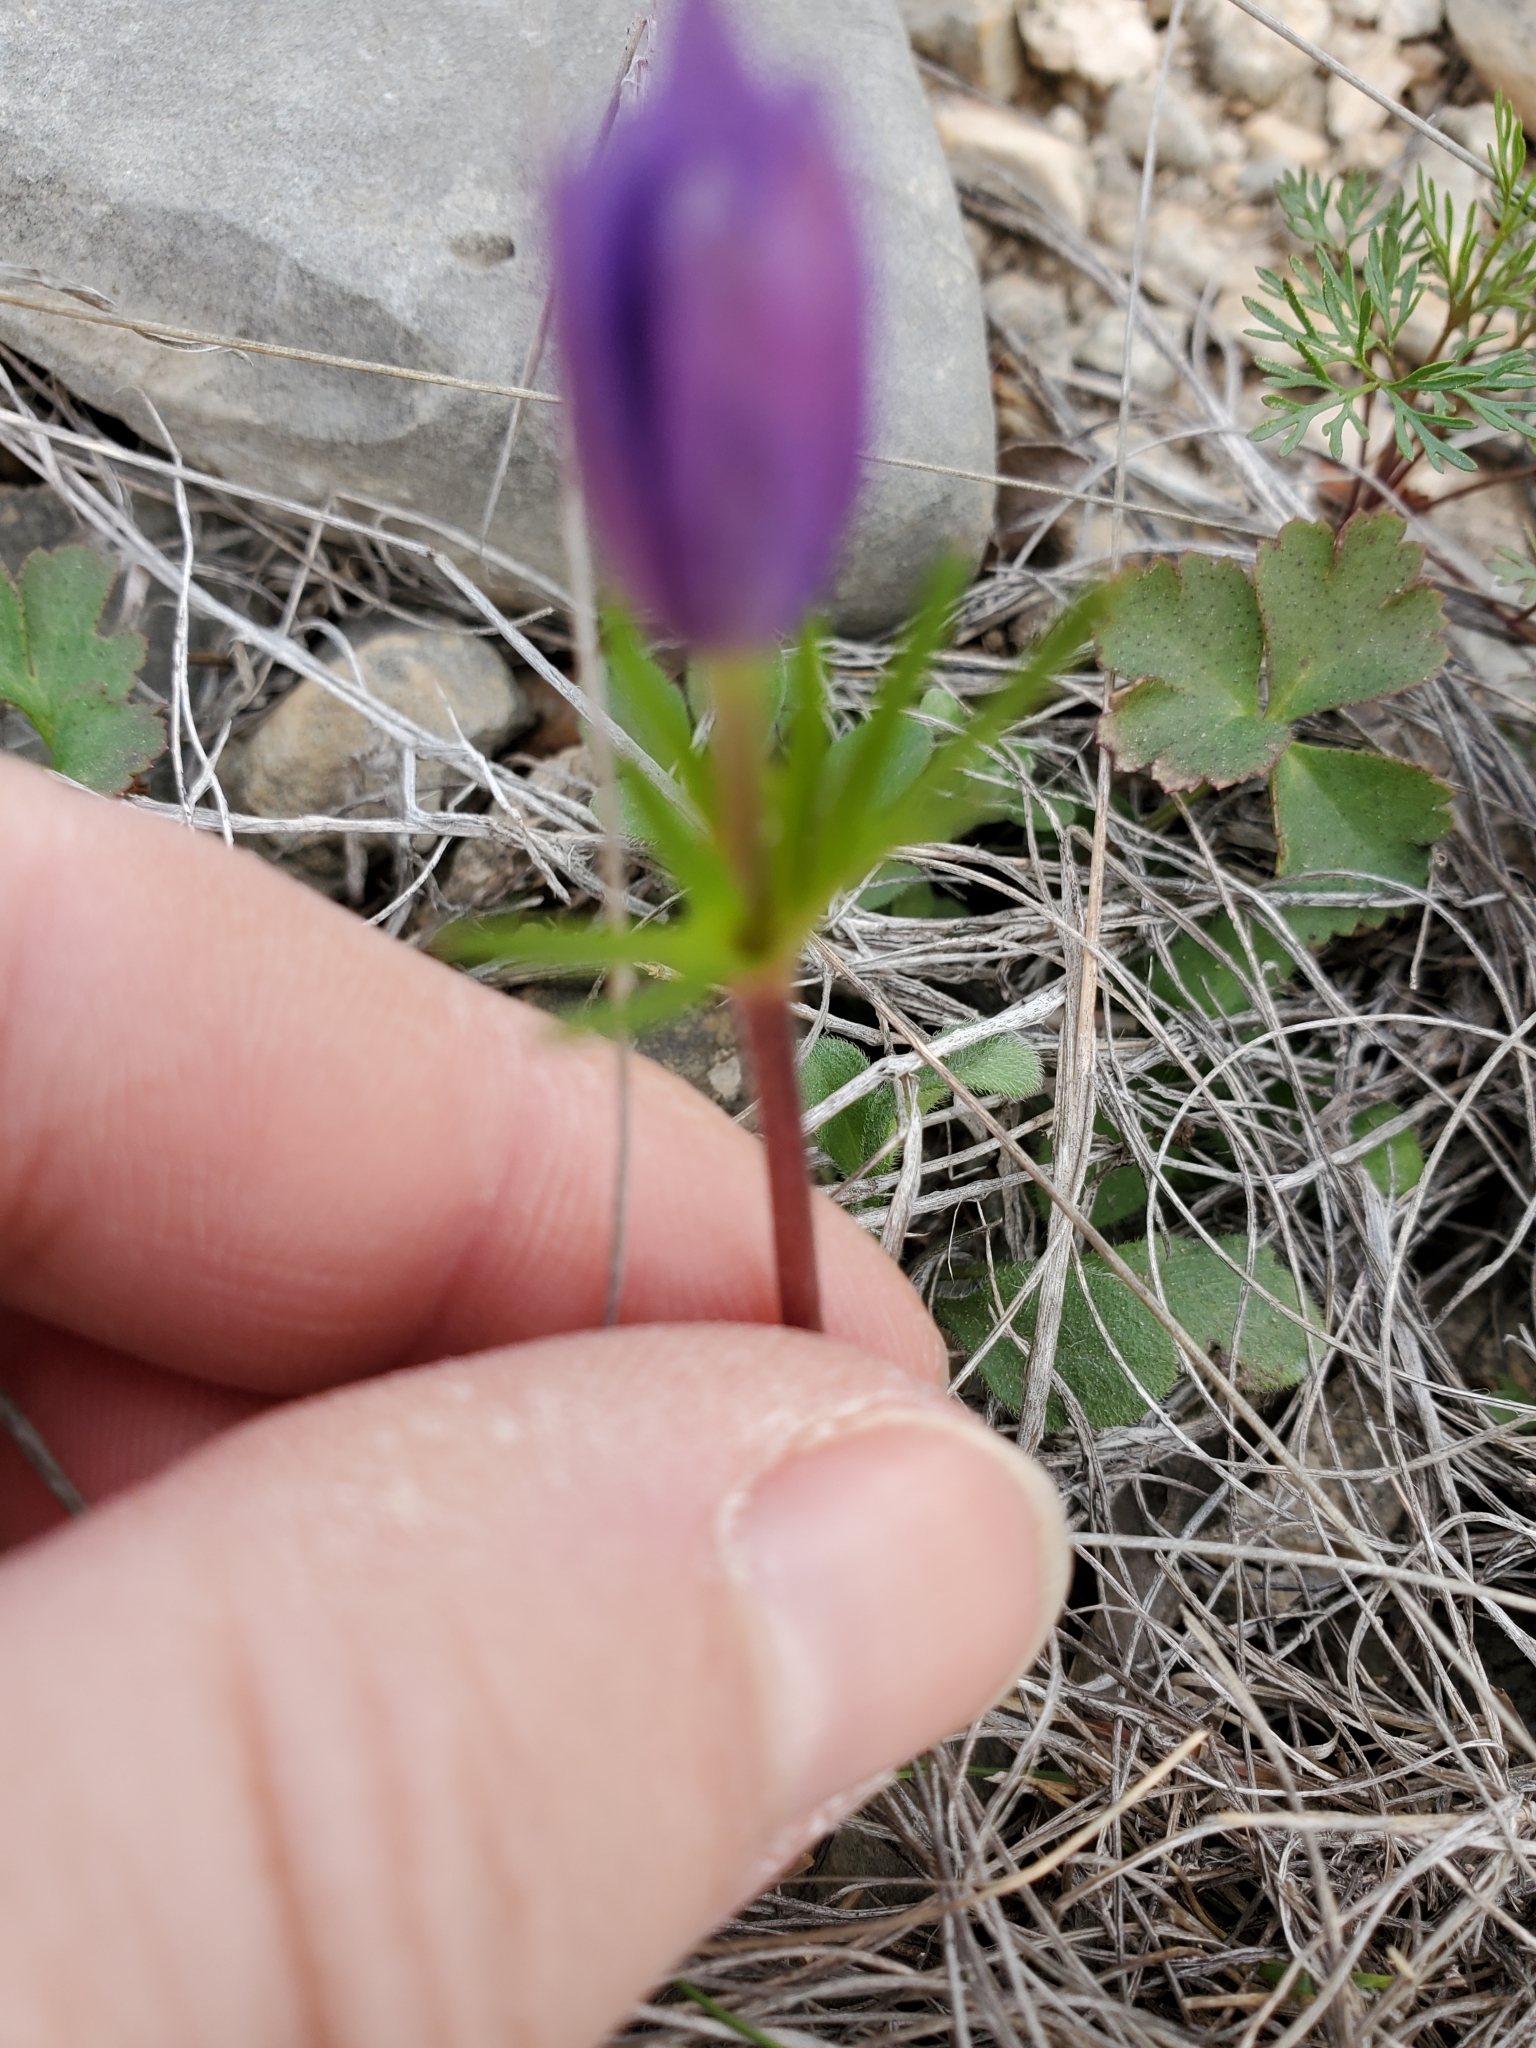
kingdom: Plantae
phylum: Tracheophyta
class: Magnoliopsida
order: Ranunculales
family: Ranunculaceae
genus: Anemone
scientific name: Anemone berlandieri
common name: Ten-petal anemone
